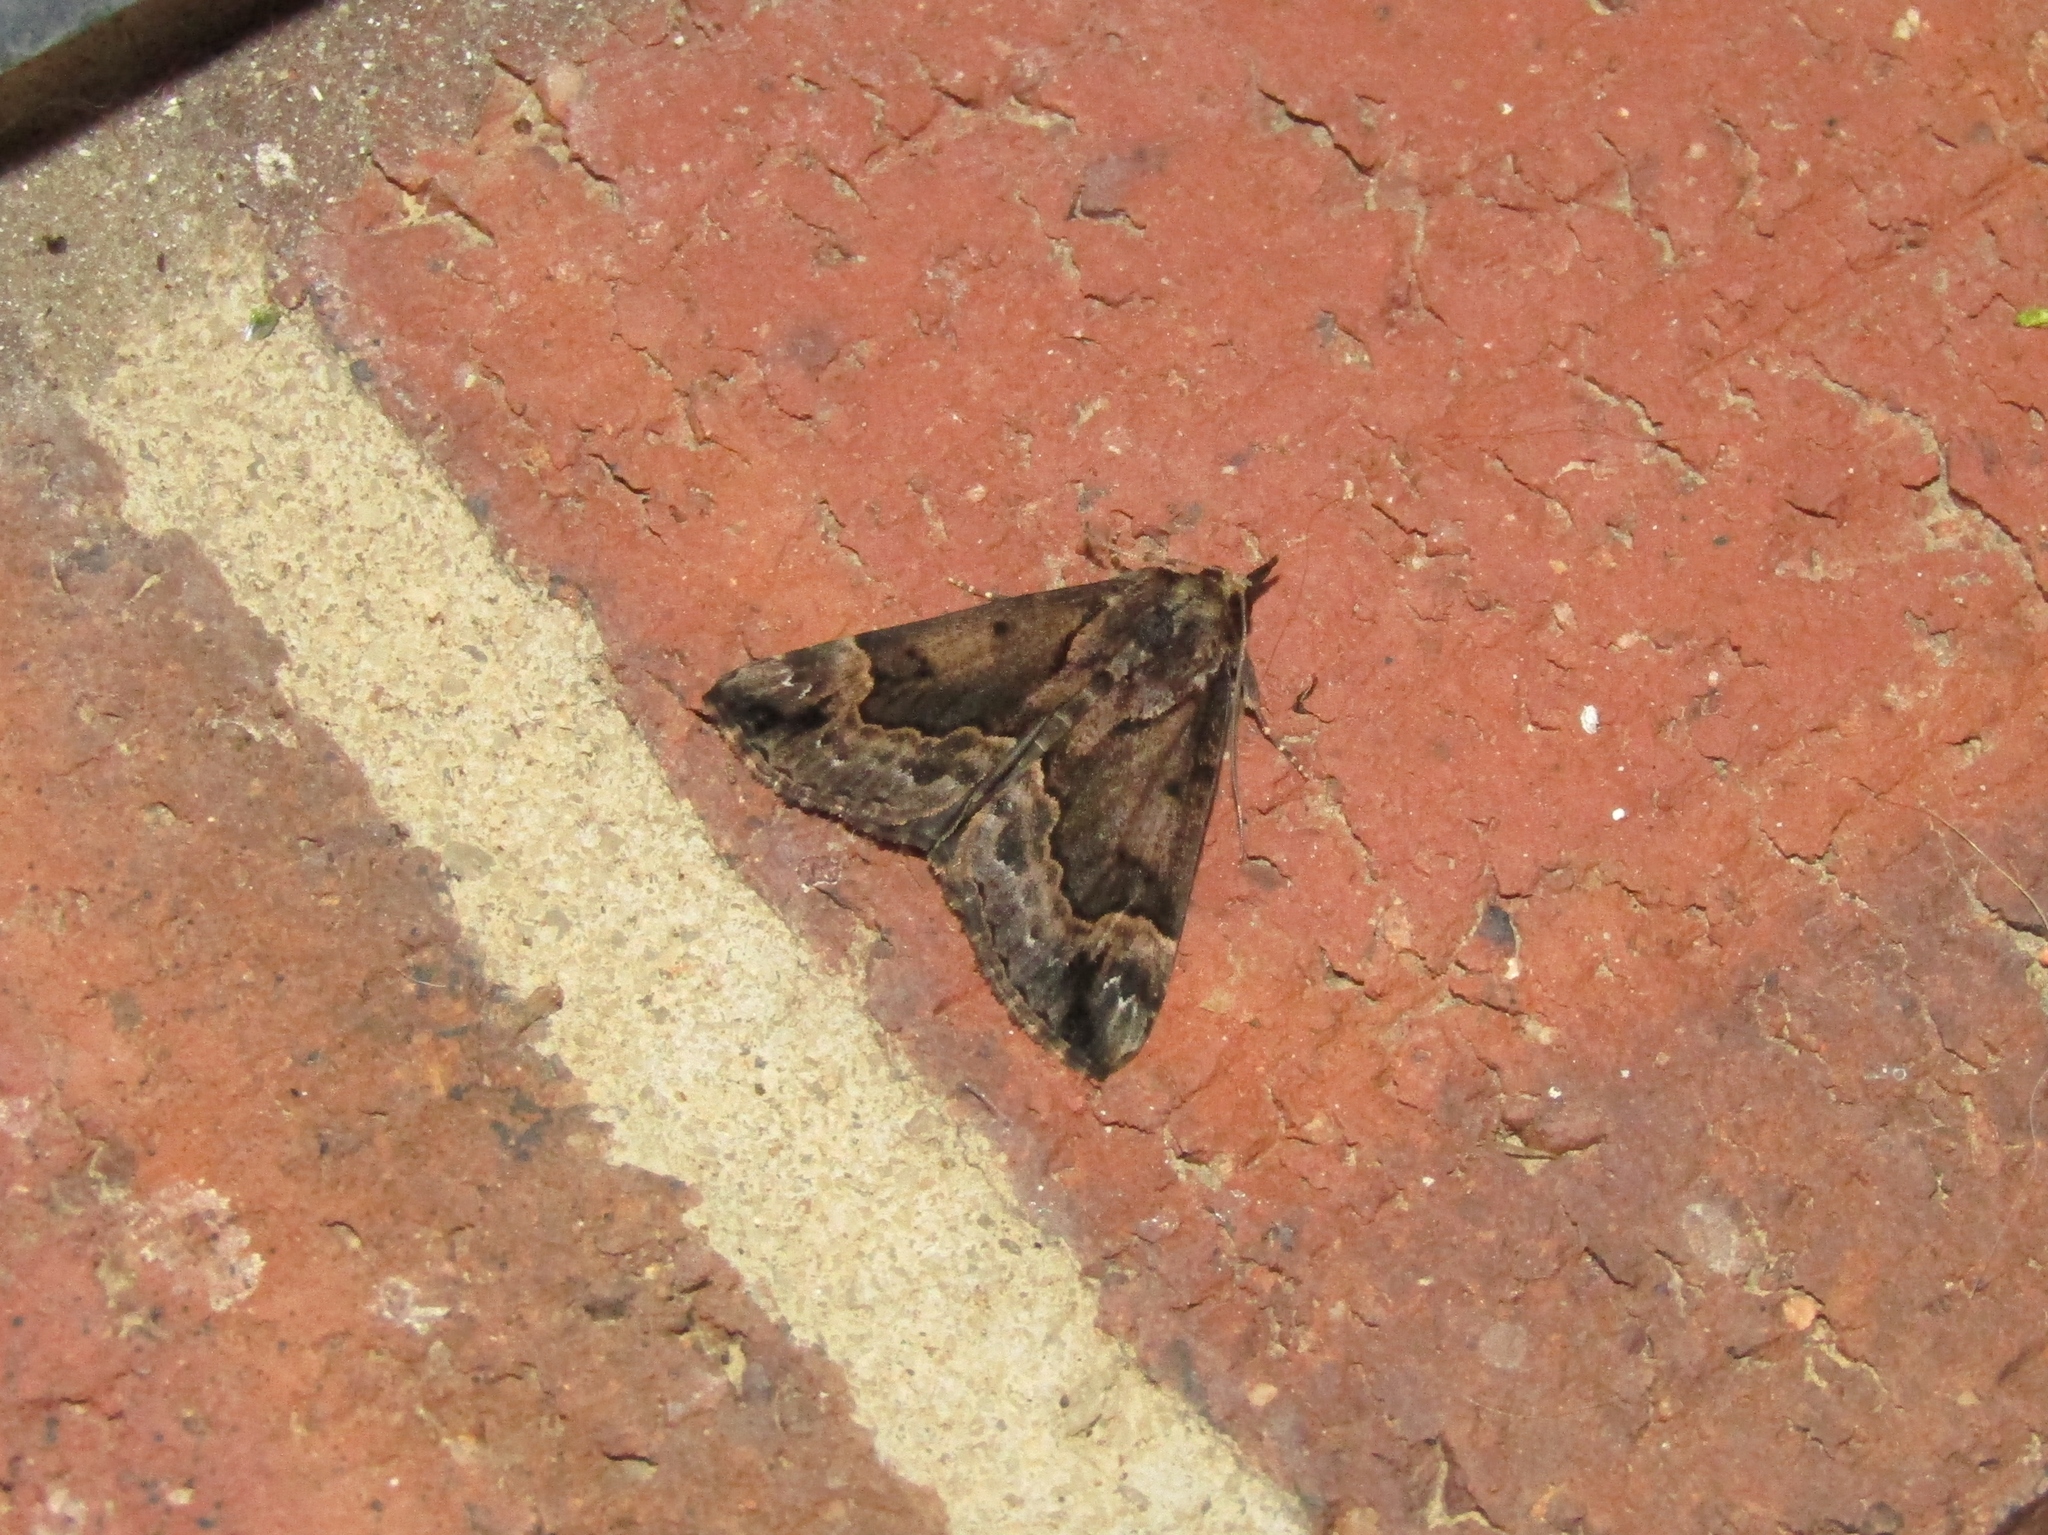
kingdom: Animalia
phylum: Arthropoda
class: Insecta
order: Lepidoptera
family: Erebidae
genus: Hypena
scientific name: Hypena baltimoralis
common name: Baltimore snout
